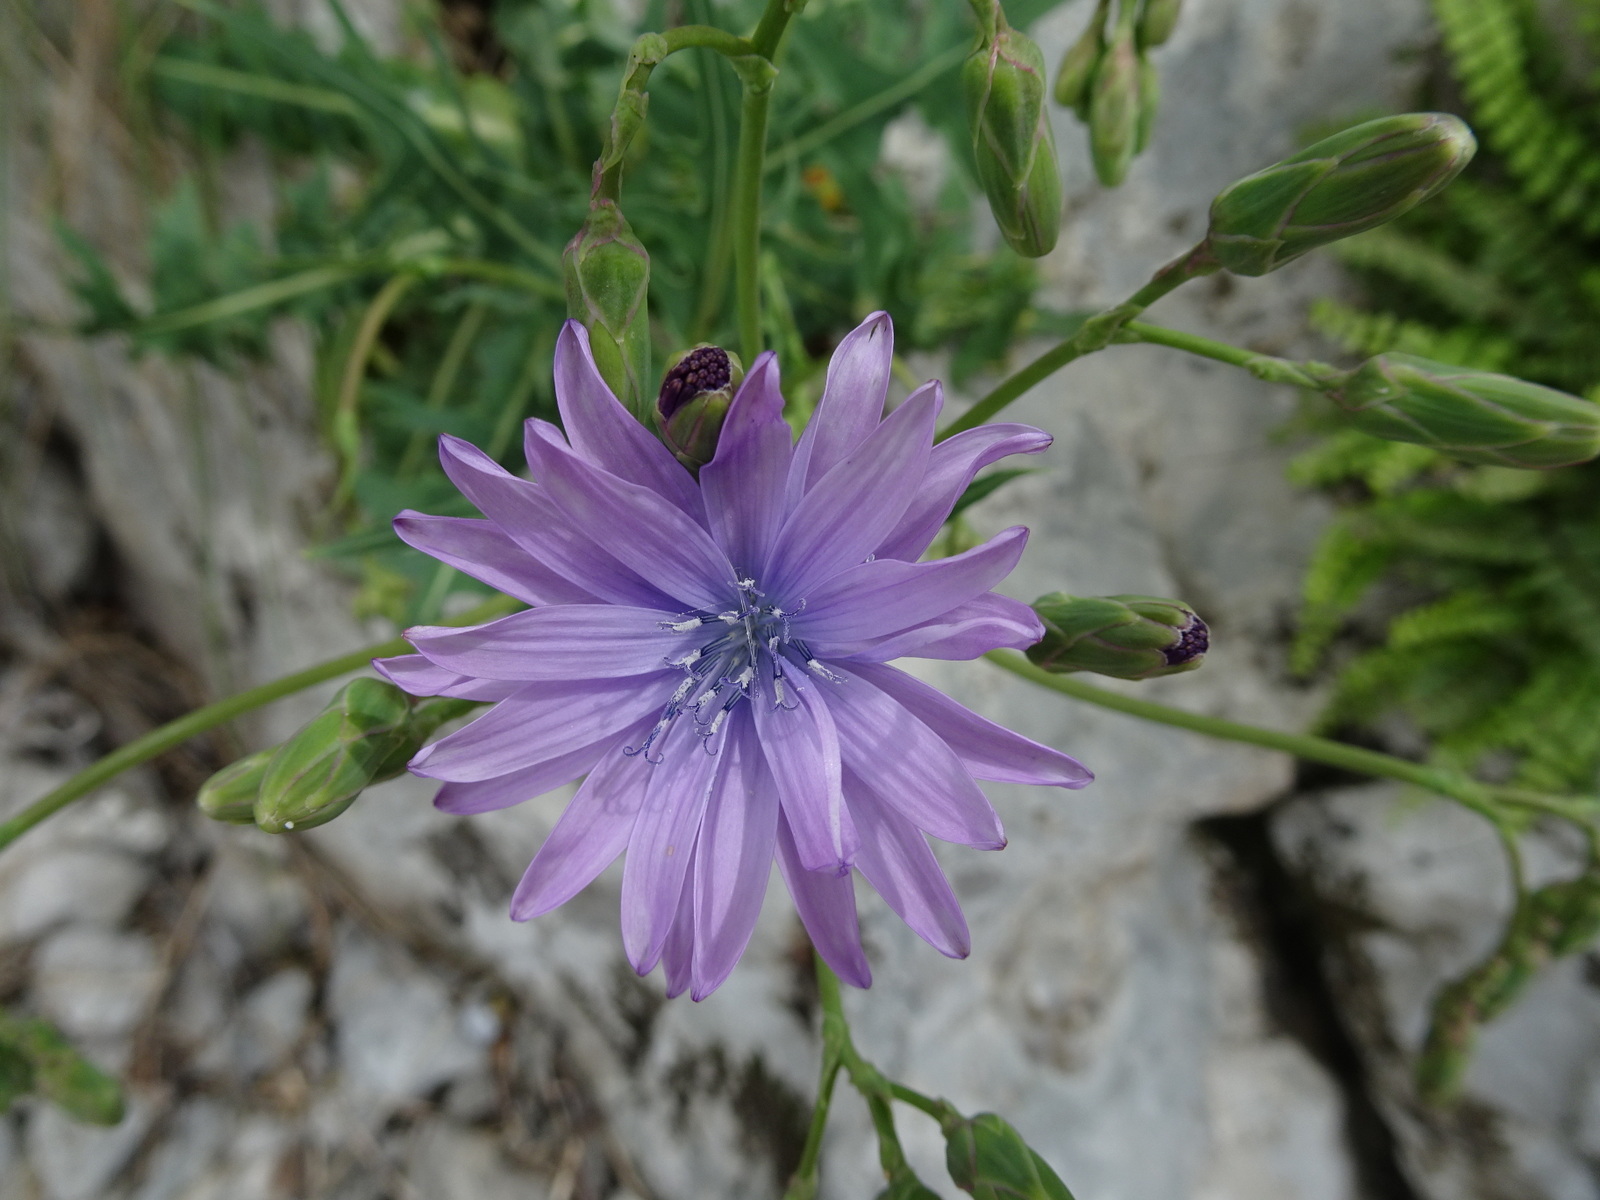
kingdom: Plantae
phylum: Tracheophyta
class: Magnoliopsida
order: Asterales
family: Asteraceae
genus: Lactuca
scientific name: Lactuca perennis
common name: Mountain lettuce
